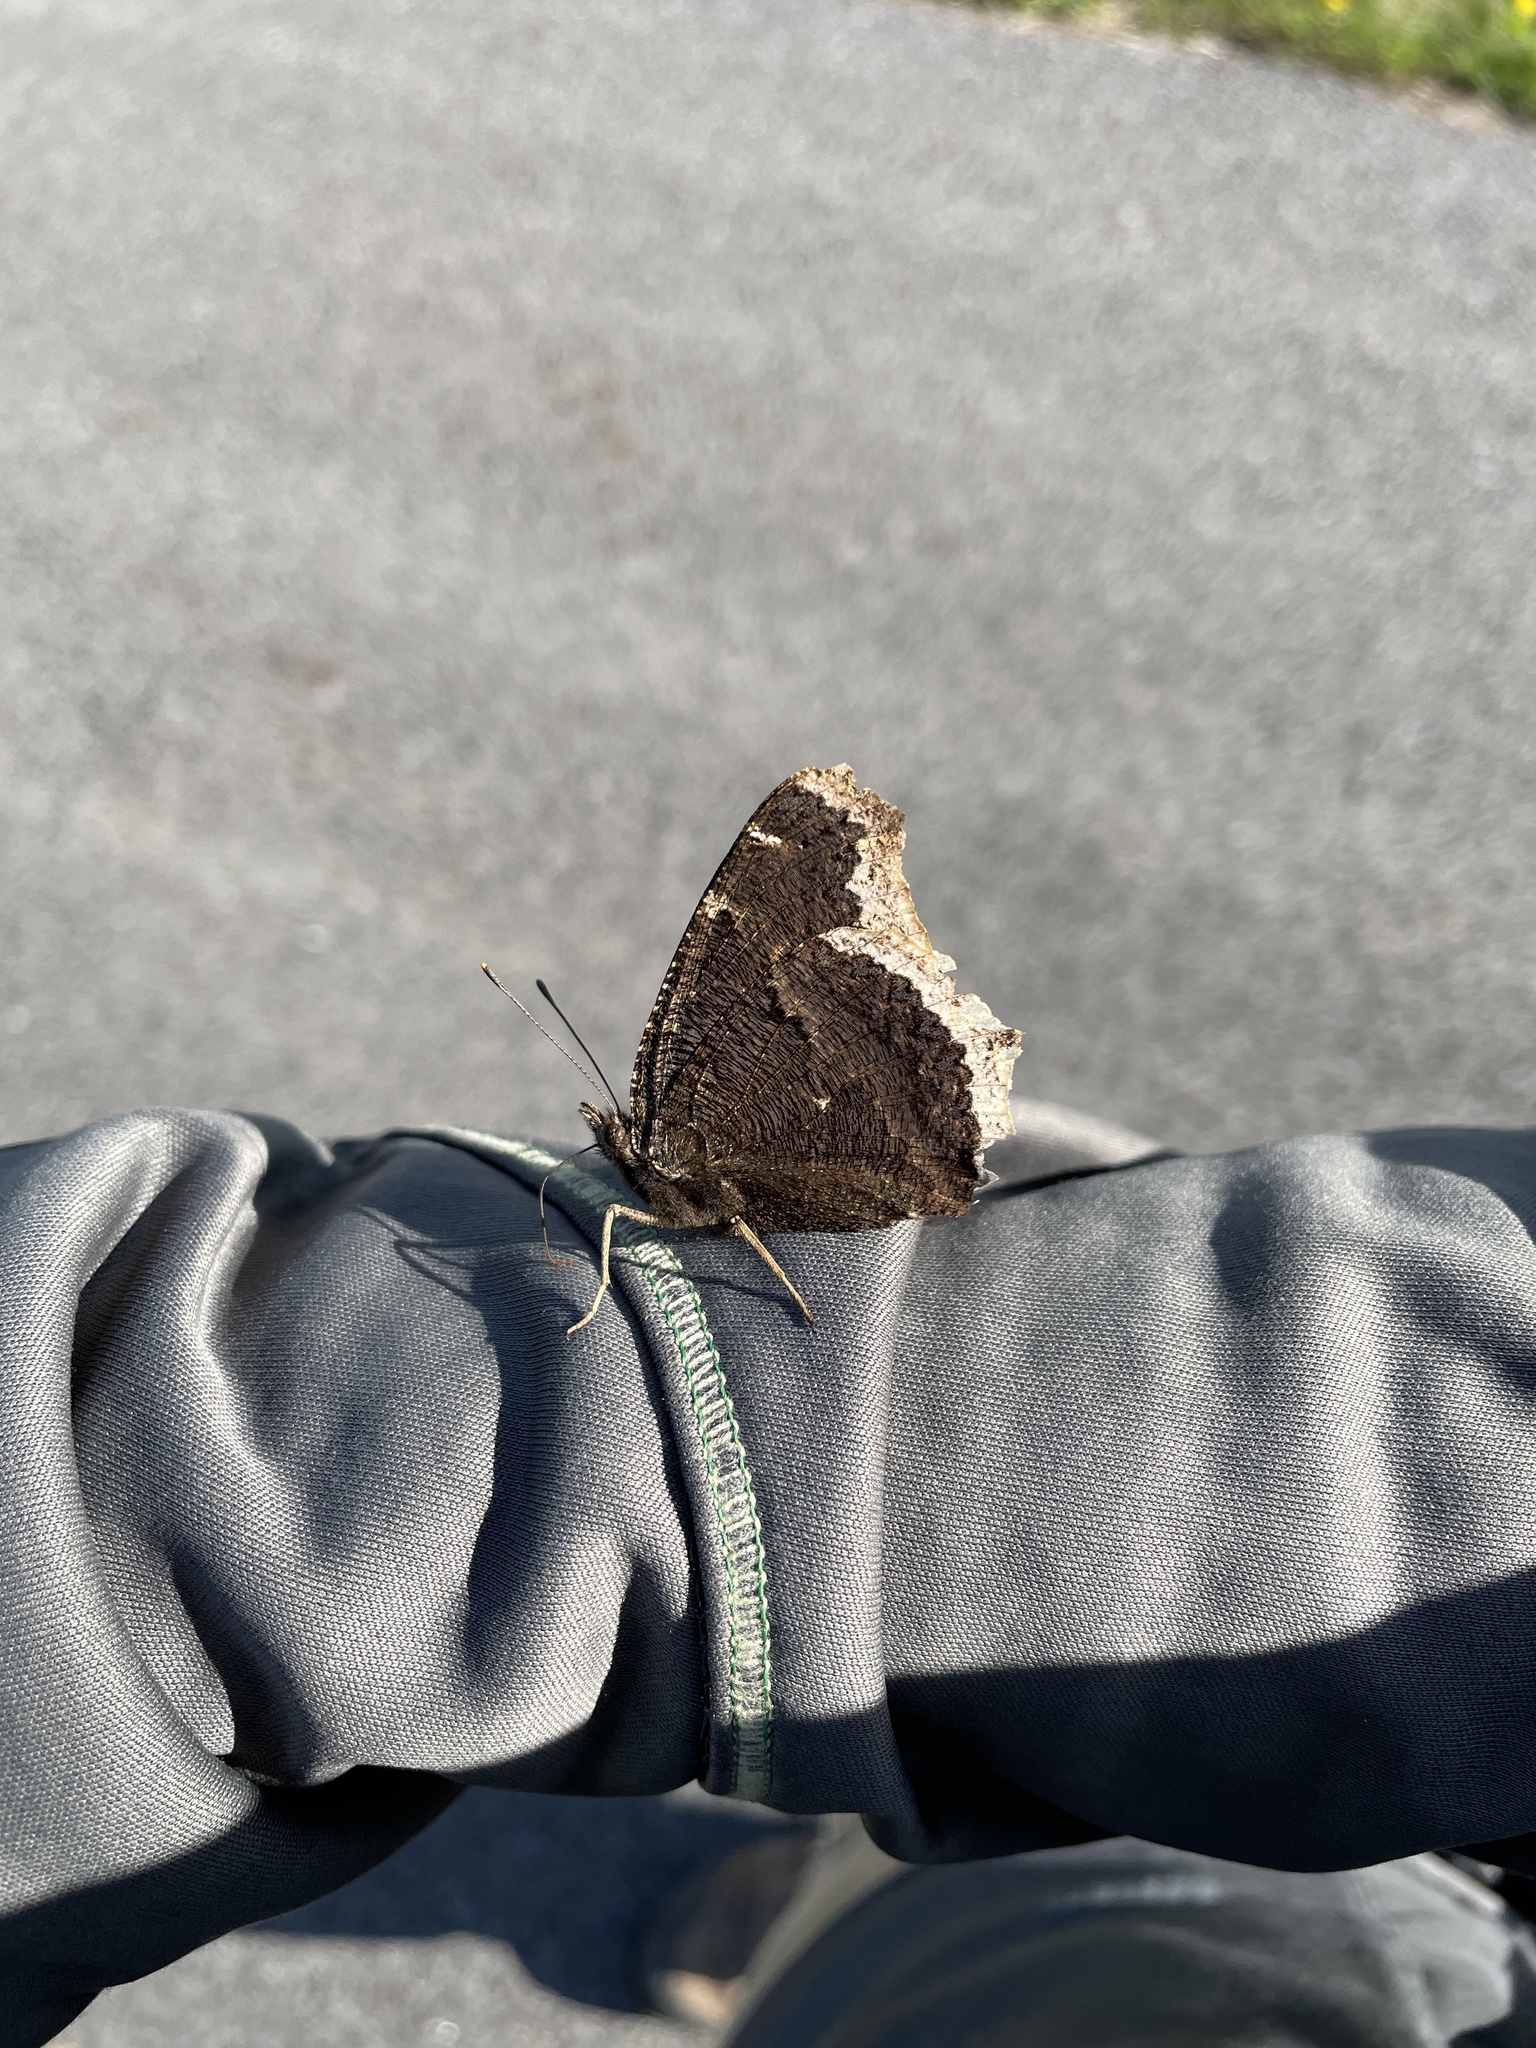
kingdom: Animalia
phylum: Arthropoda
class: Insecta
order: Lepidoptera
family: Nymphalidae
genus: Nymphalis
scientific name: Nymphalis antiopa
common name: Camberwell beauty
